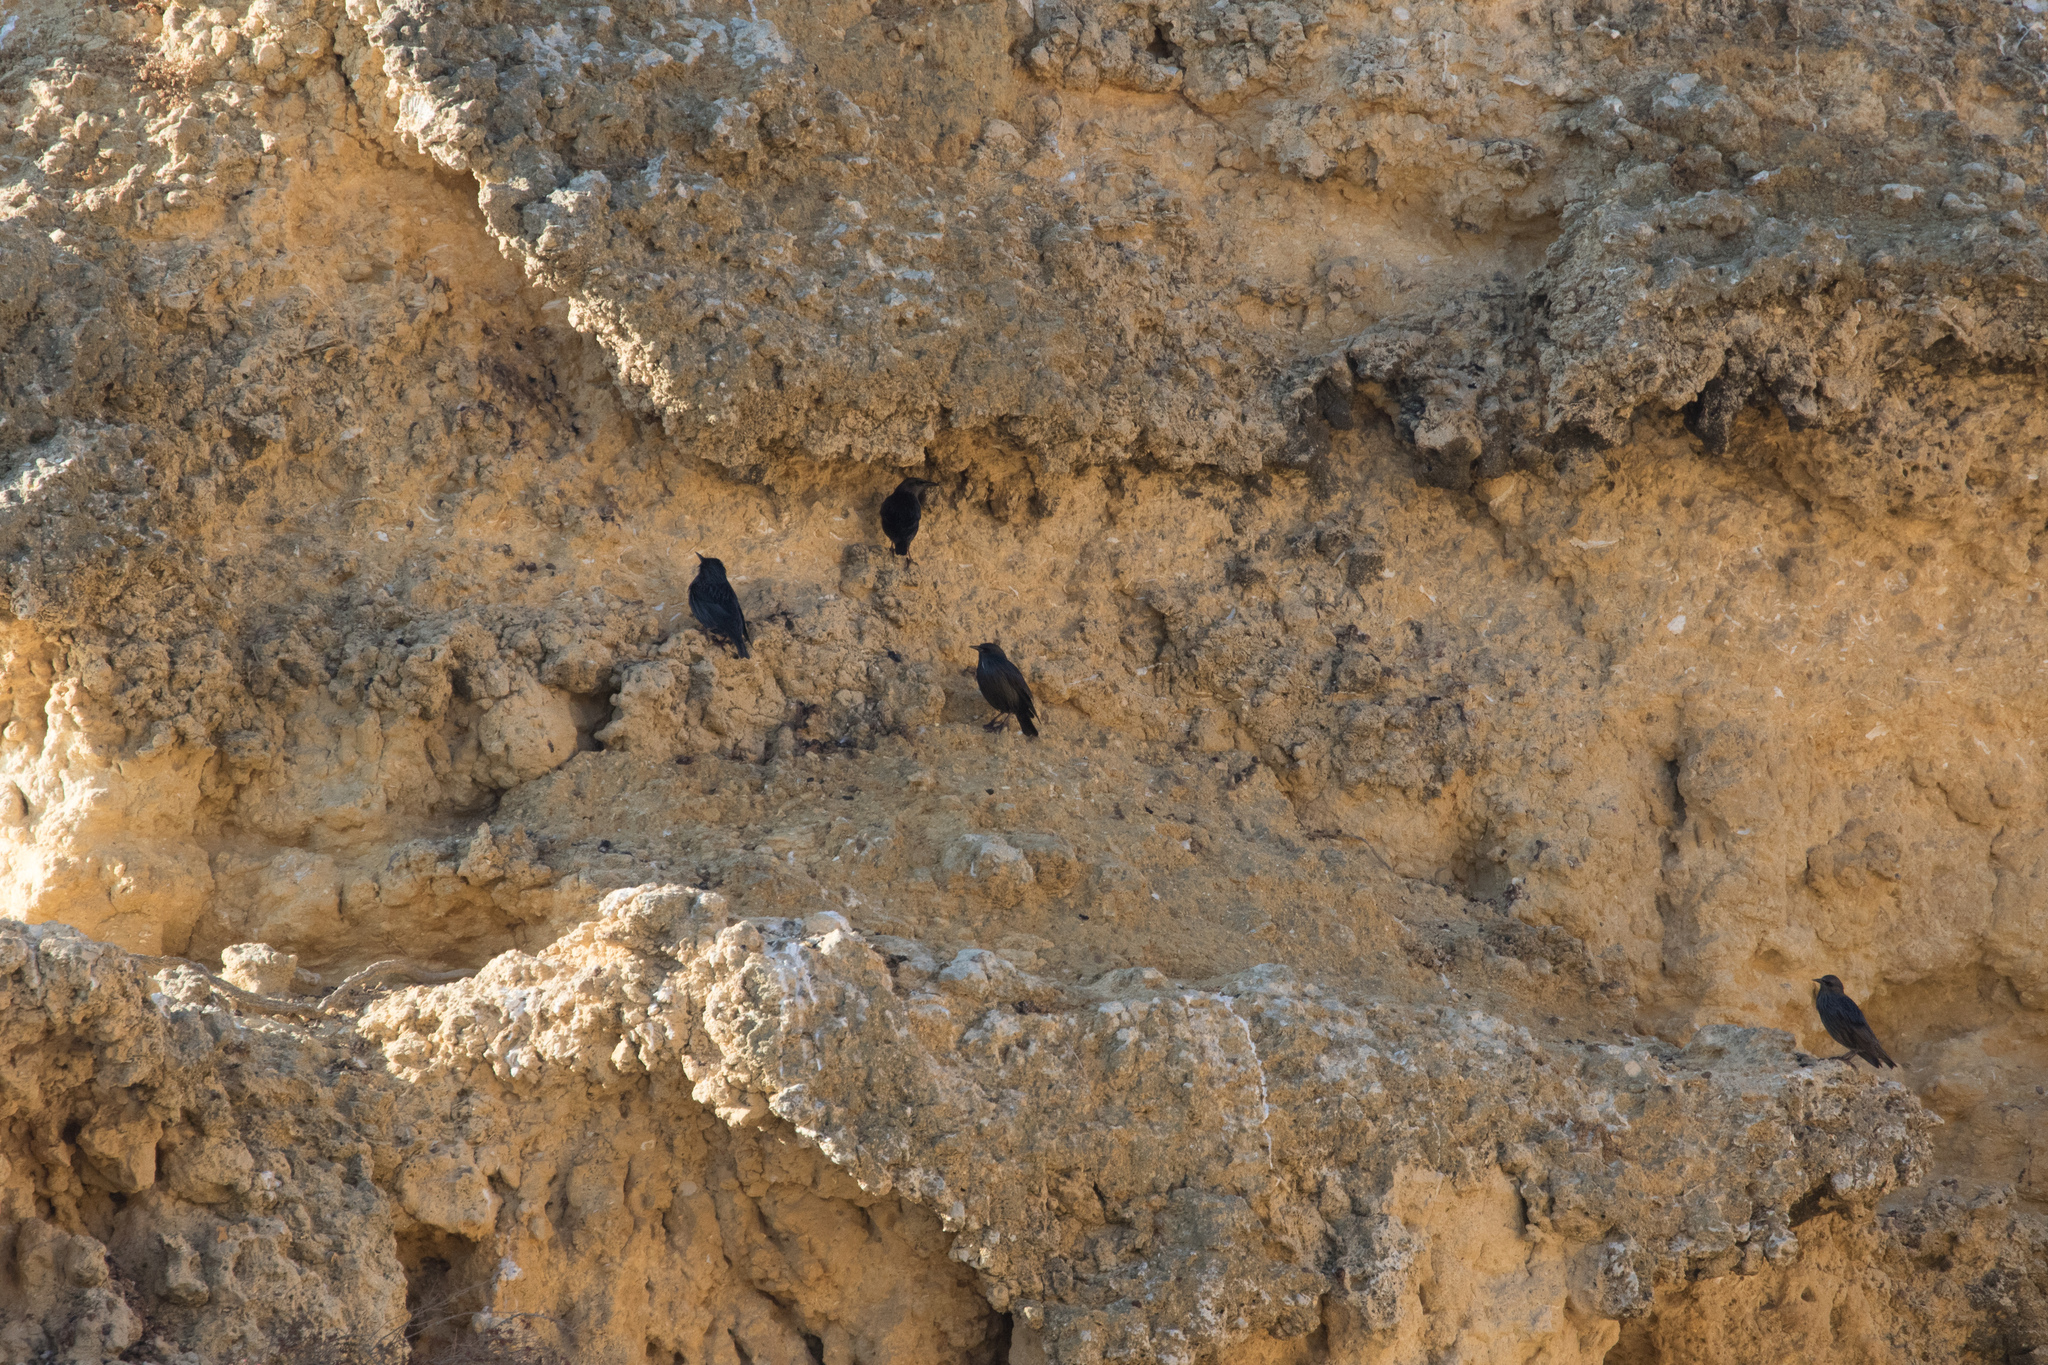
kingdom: Animalia
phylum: Chordata
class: Aves
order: Passeriformes
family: Sturnidae
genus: Sturnus
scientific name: Sturnus unicolor
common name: Spotless starling
